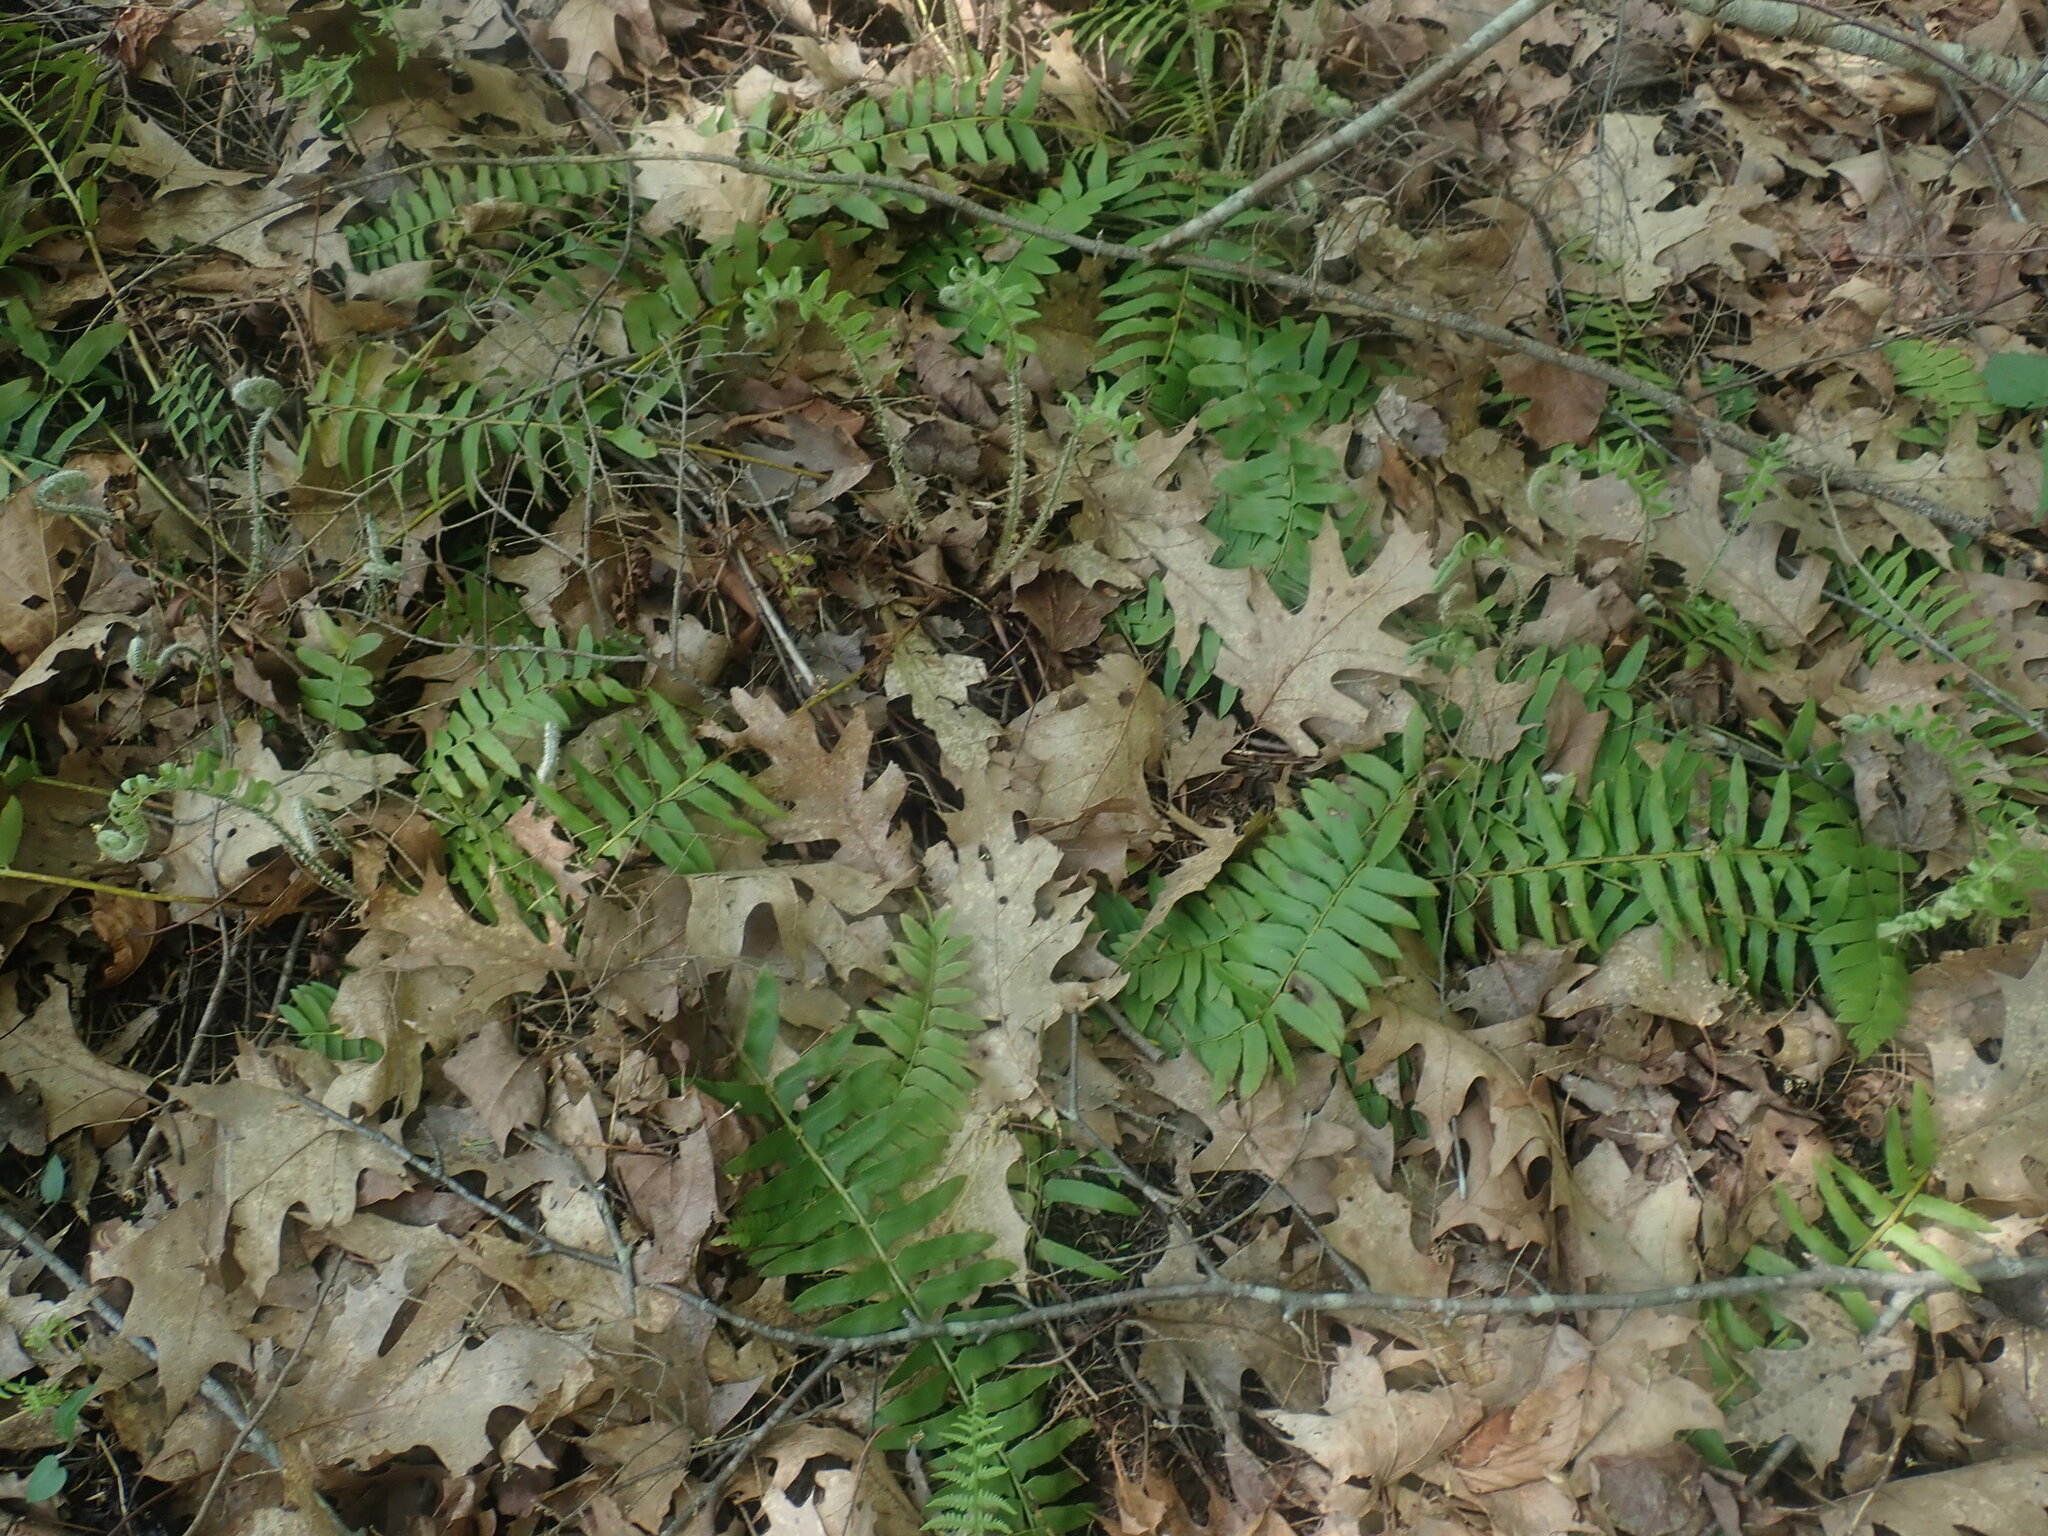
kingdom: Plantae
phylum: Tracheophyta
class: Polypodiopsida
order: Polypodiales
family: Dryopteridaceae
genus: Polystichum
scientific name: Polystichum acrostichoides
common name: Christmas fern
